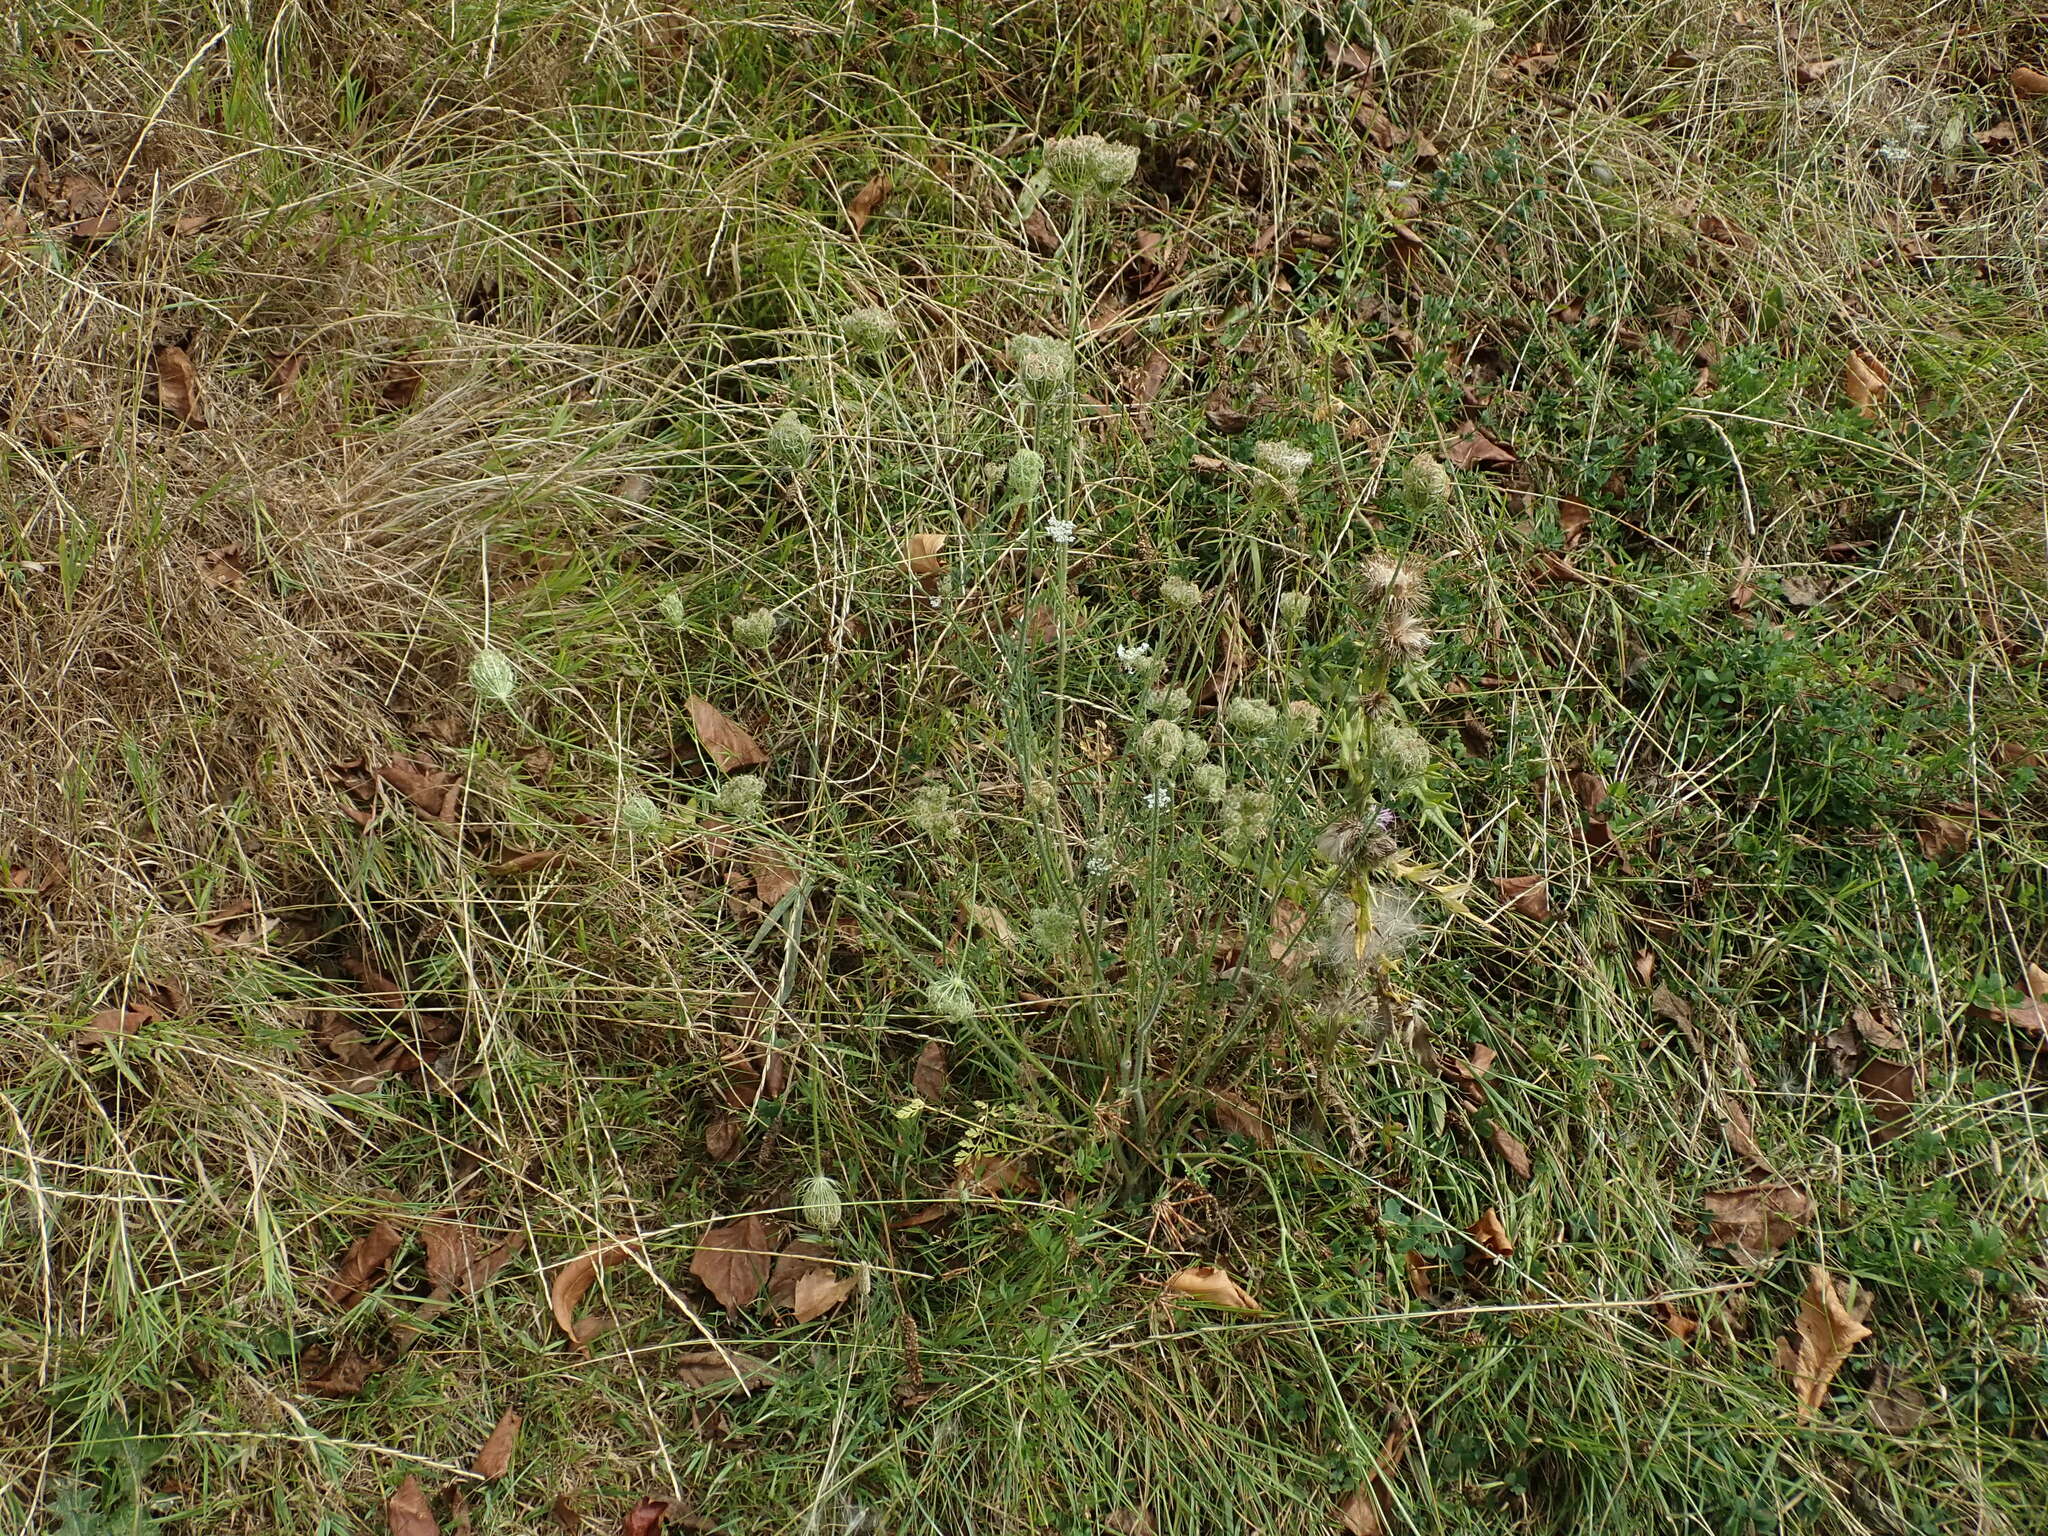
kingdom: Plantae
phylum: Tracheophyta
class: Magnoliopsida
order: Apiales
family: Apiaceae
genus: Daucus
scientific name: Daucus carota
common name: Wild carrot
